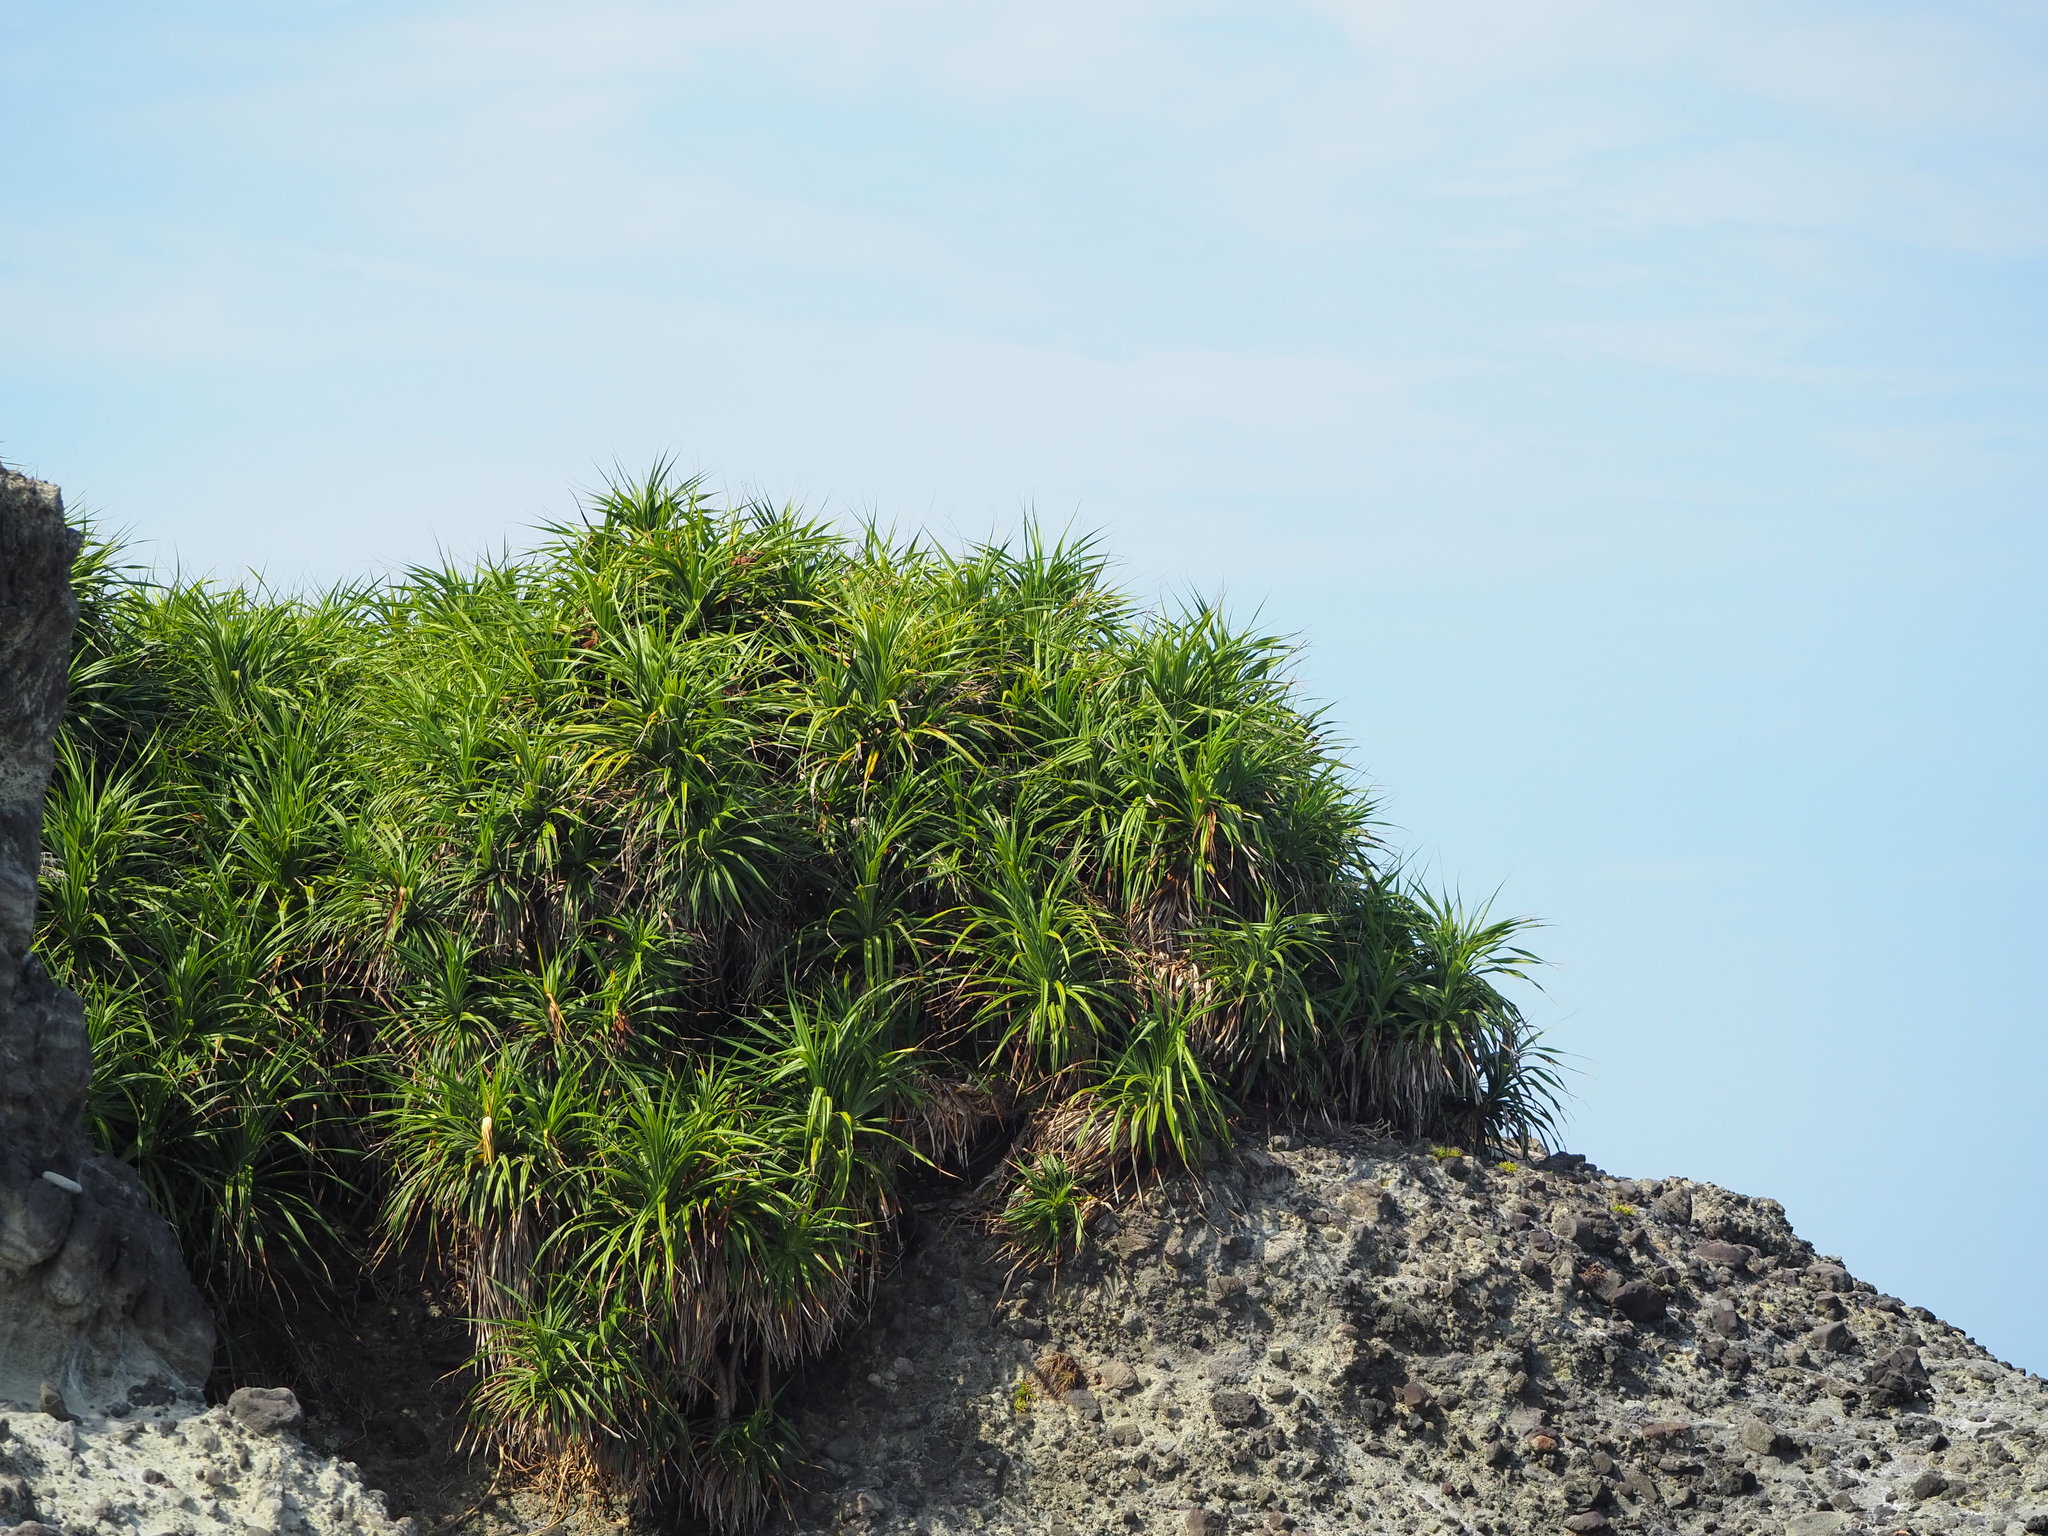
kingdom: Plantae
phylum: Tracheophyta
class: Liliopsida
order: Pandanales
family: Pandanaceae
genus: Pandanus
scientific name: Pandanus odorifer
